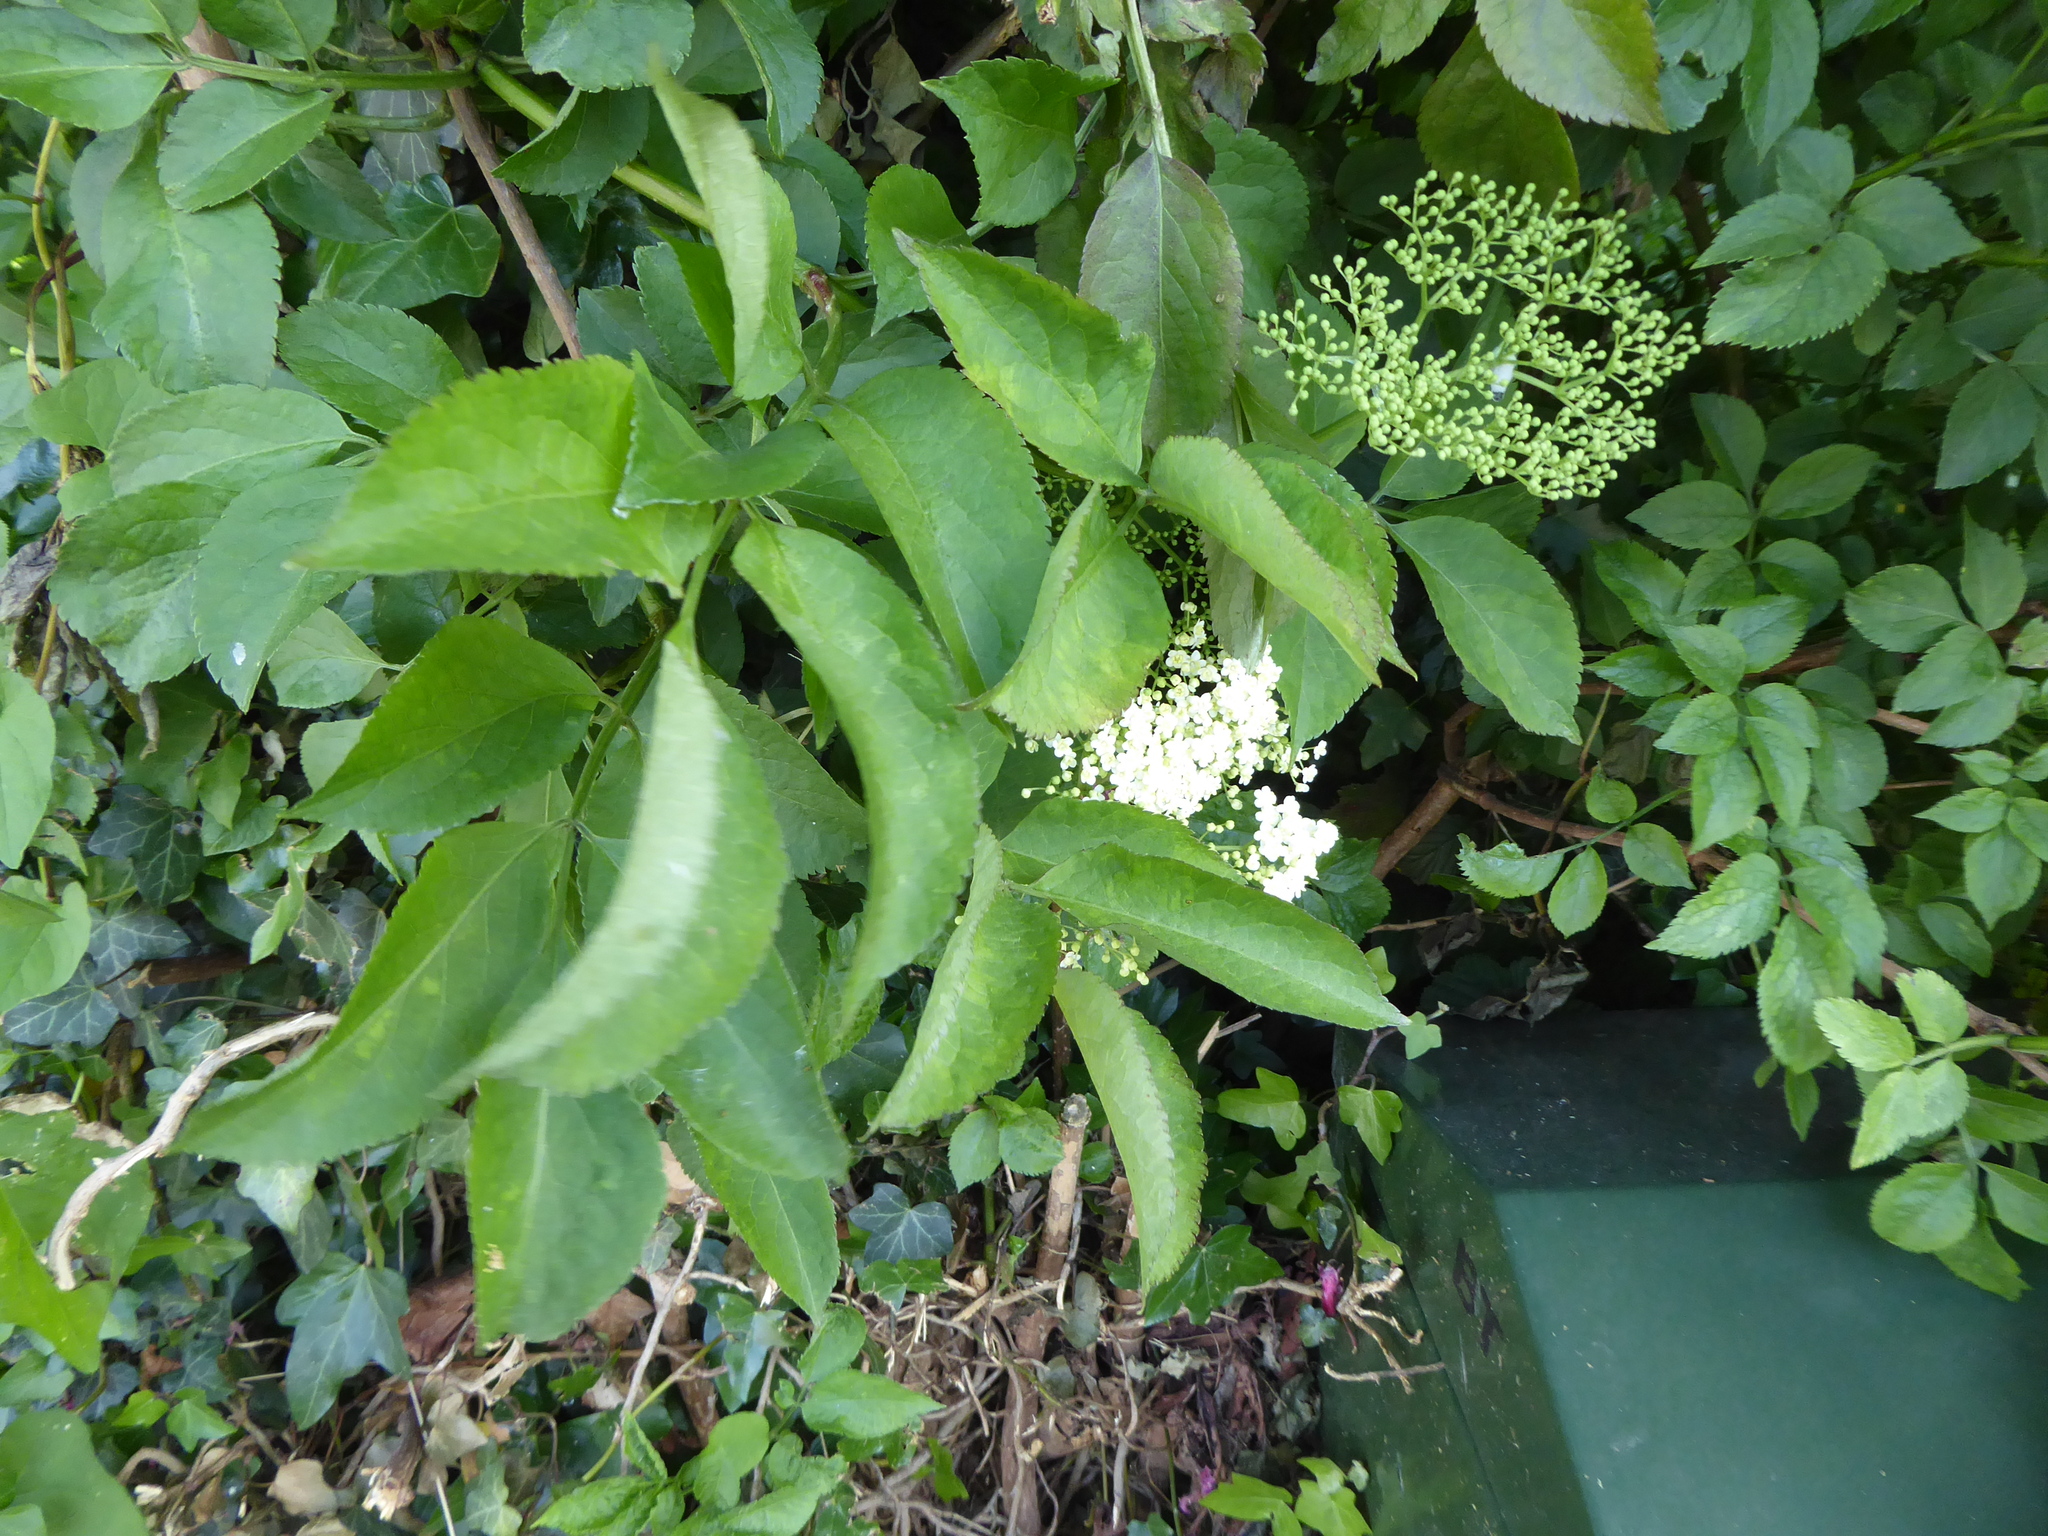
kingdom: Plantae
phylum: Tracheophyta
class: Magnoliopsida
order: Dipsacales
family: Viburnaceae
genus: Sambucus
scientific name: Sambucus nigra
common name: Elder
